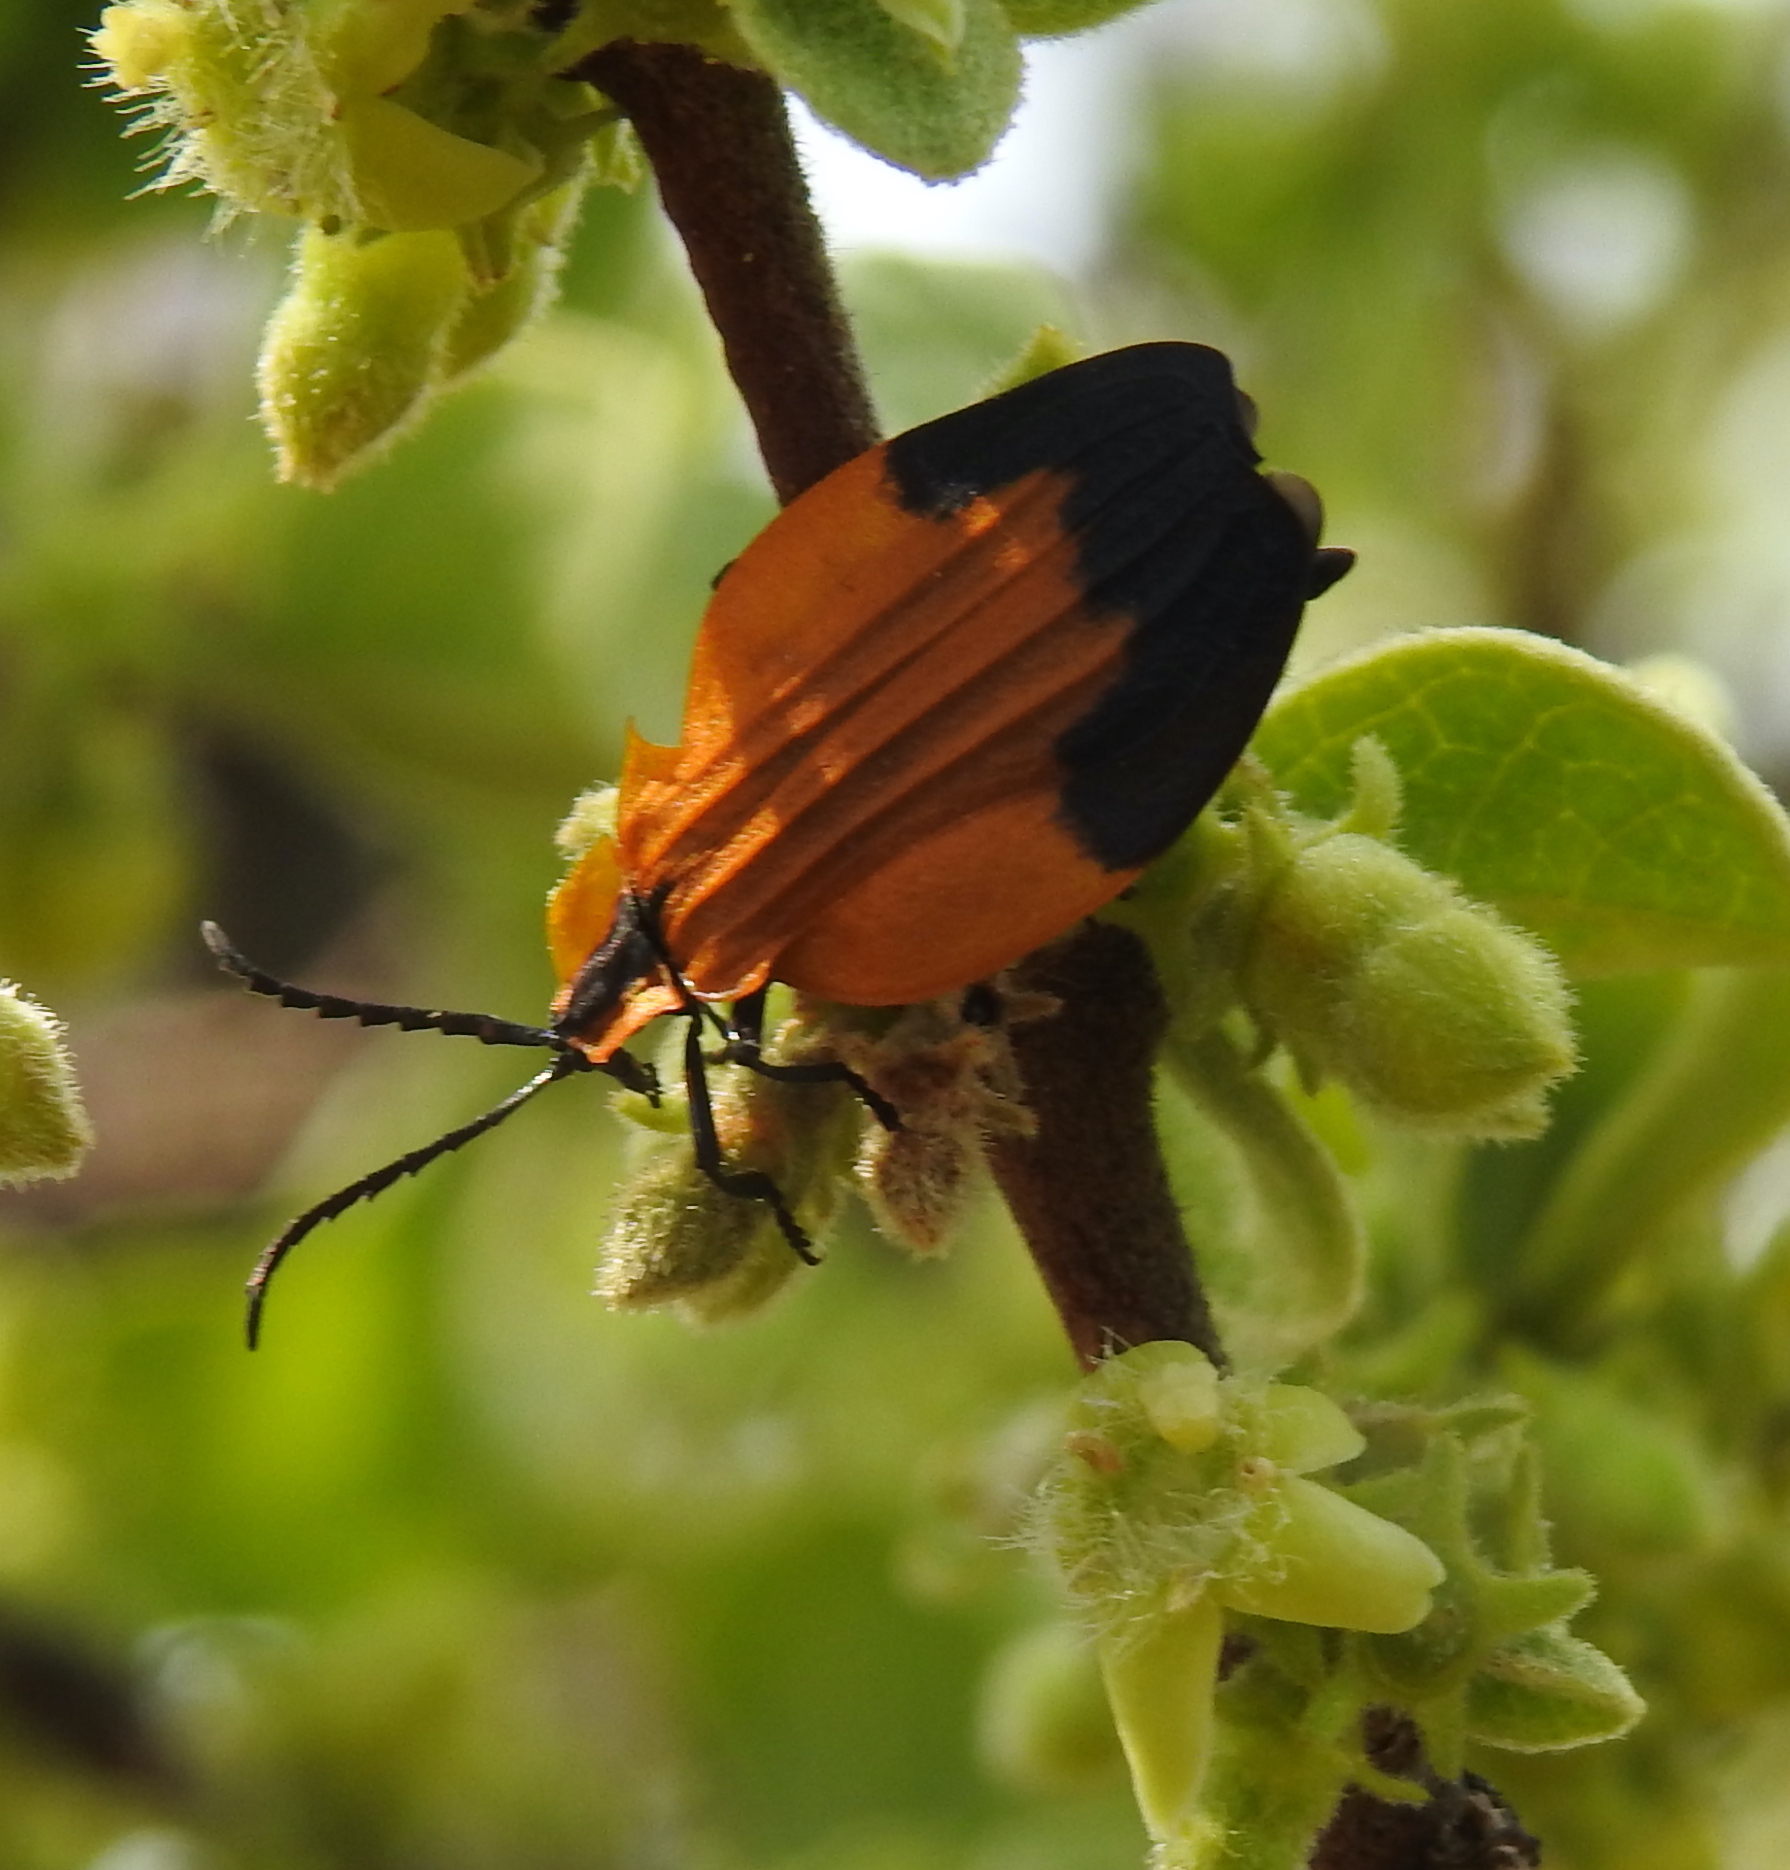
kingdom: Animalia
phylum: Arthropoda
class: Insecta
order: Coleoptera
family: Lycidae
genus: Lycus
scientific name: Lycus
